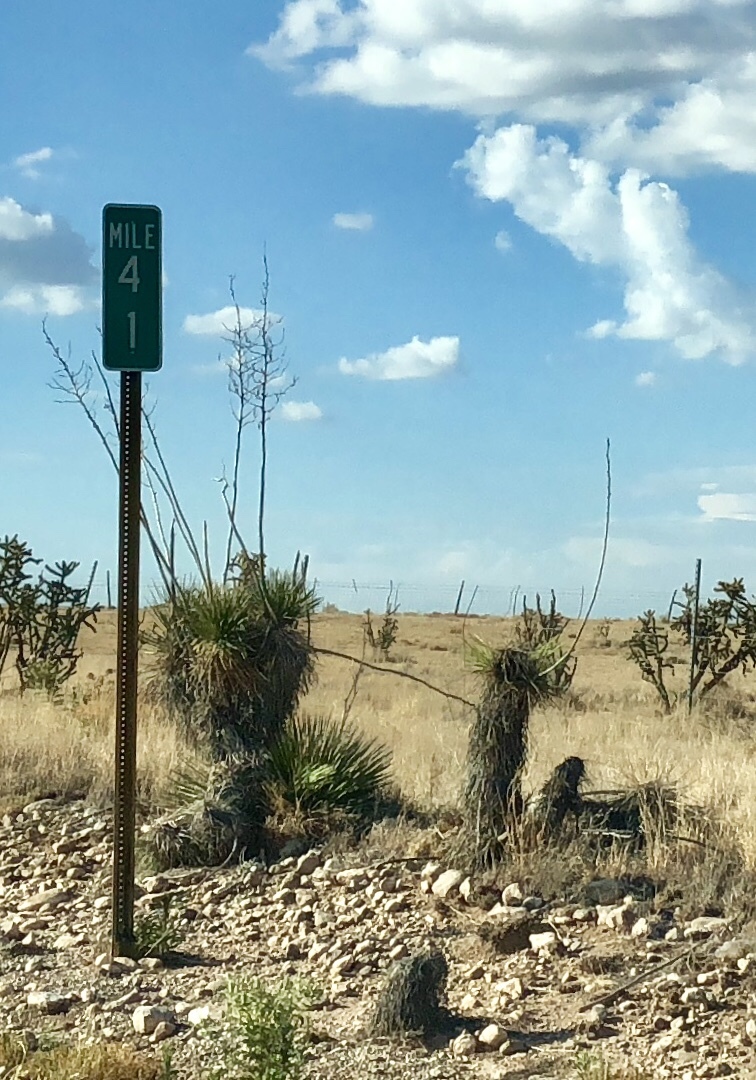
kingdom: Plantae
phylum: Tracheophyta
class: Liliopsida
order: Asparagales
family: Asparagaceae
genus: Yucca
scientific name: Yucca elata
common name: Palmella
